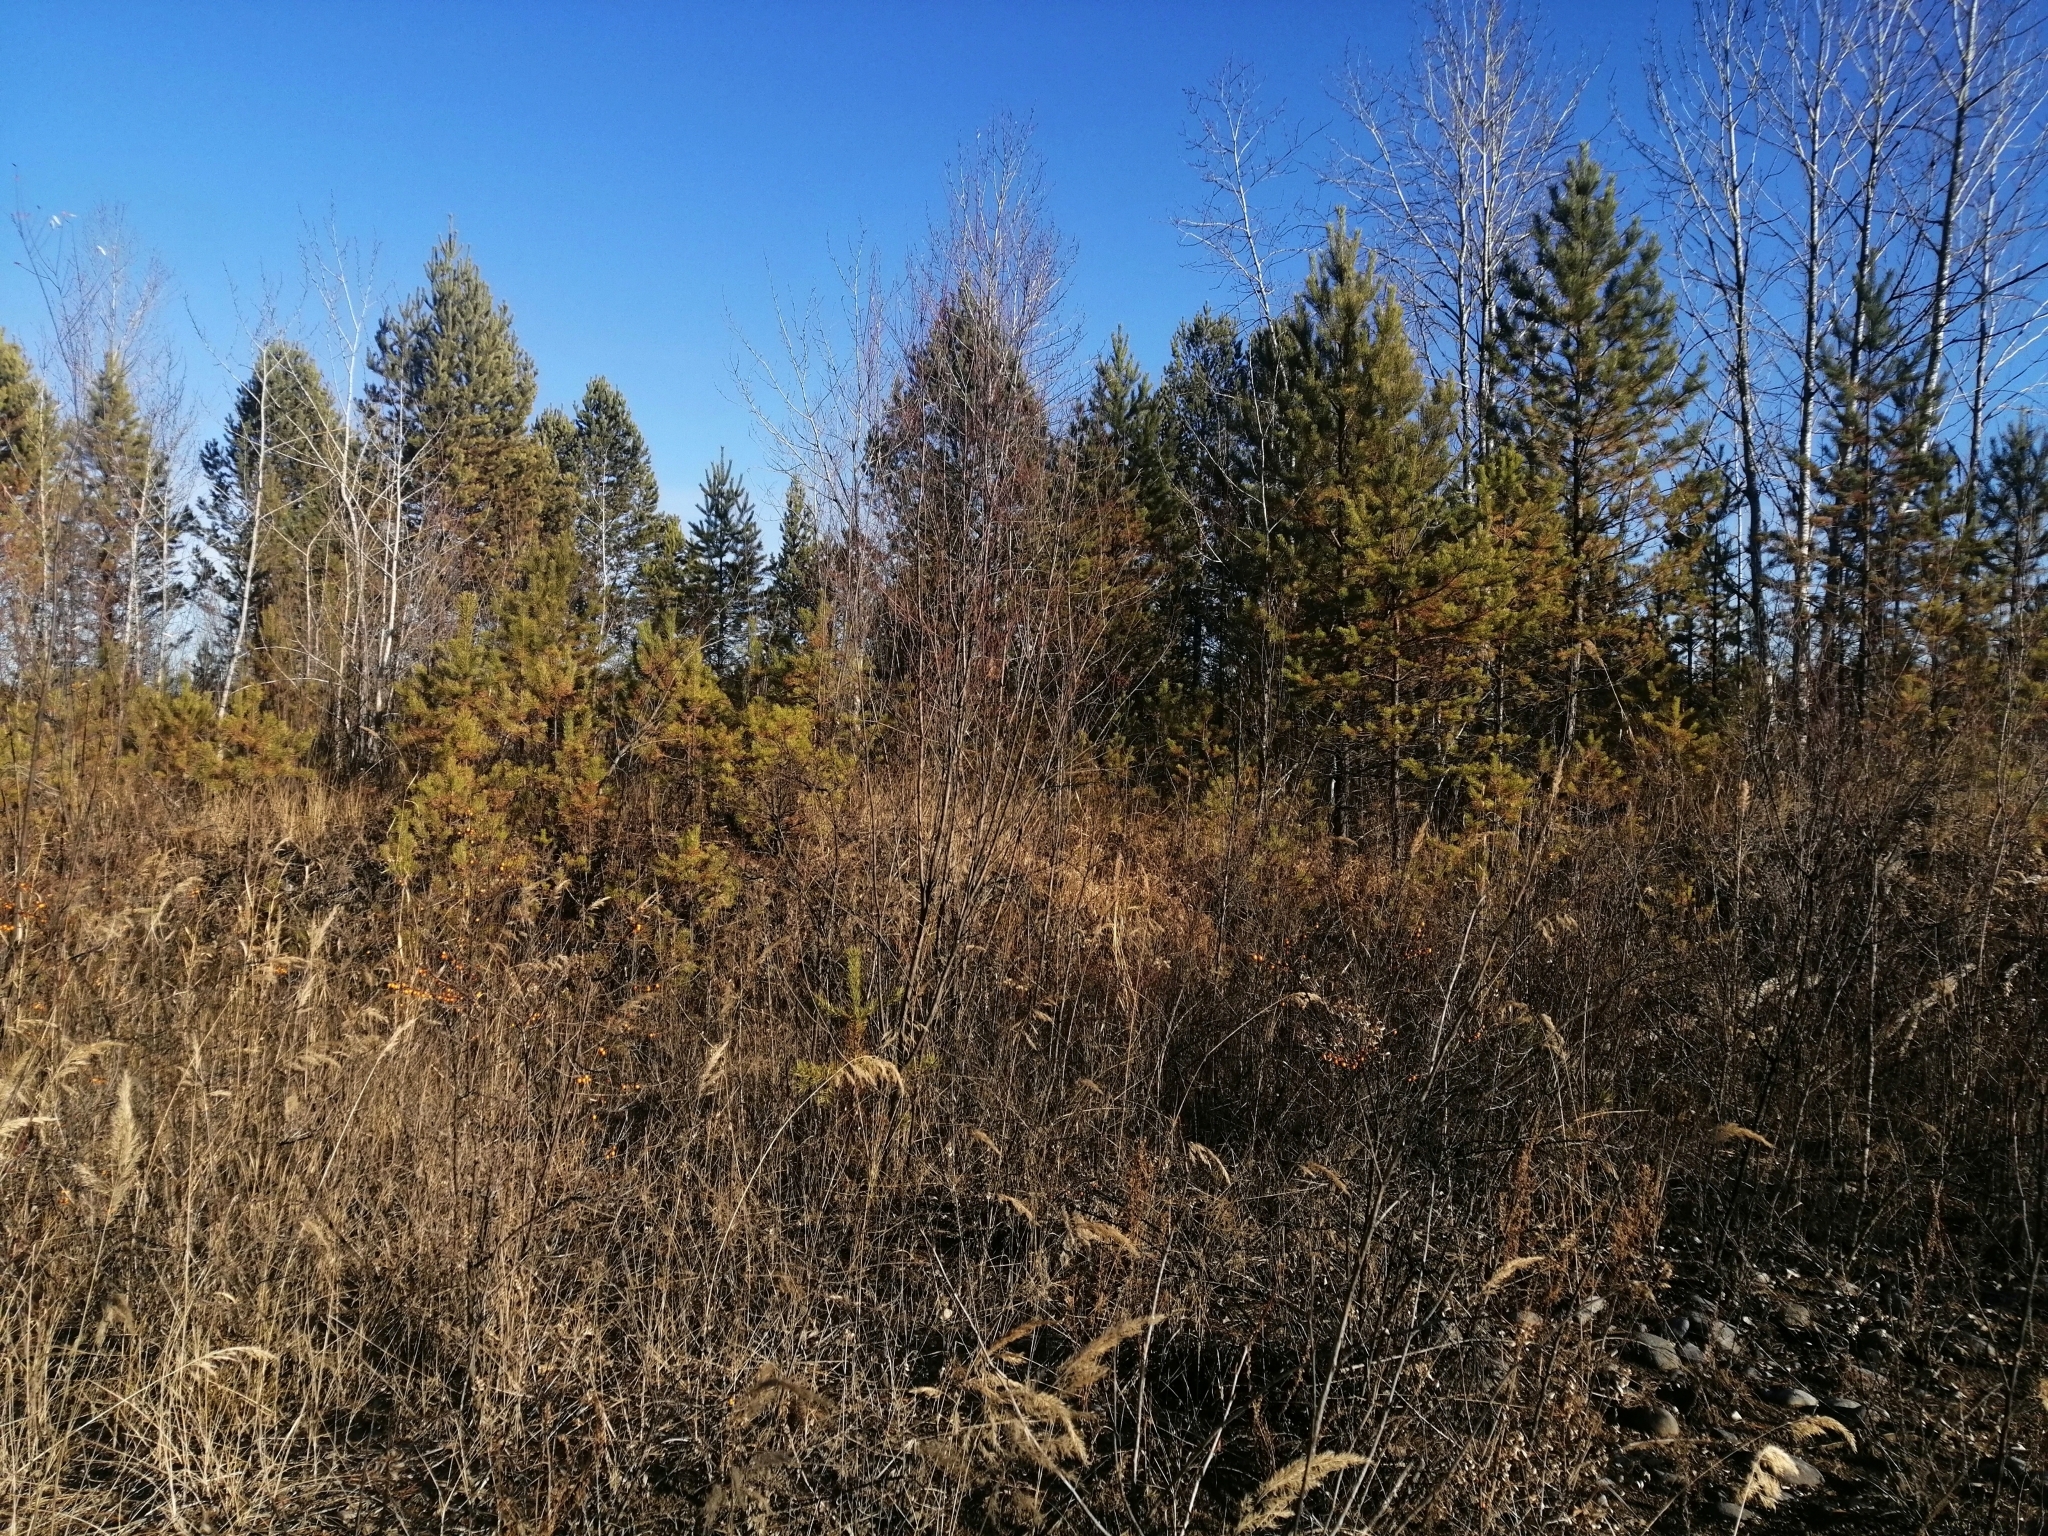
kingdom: Plantae
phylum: Tracheophyta
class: Pinopsida
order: Pinales
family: Pinaceae
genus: Pinus
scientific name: Pinus sylvestris
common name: Scots pine
